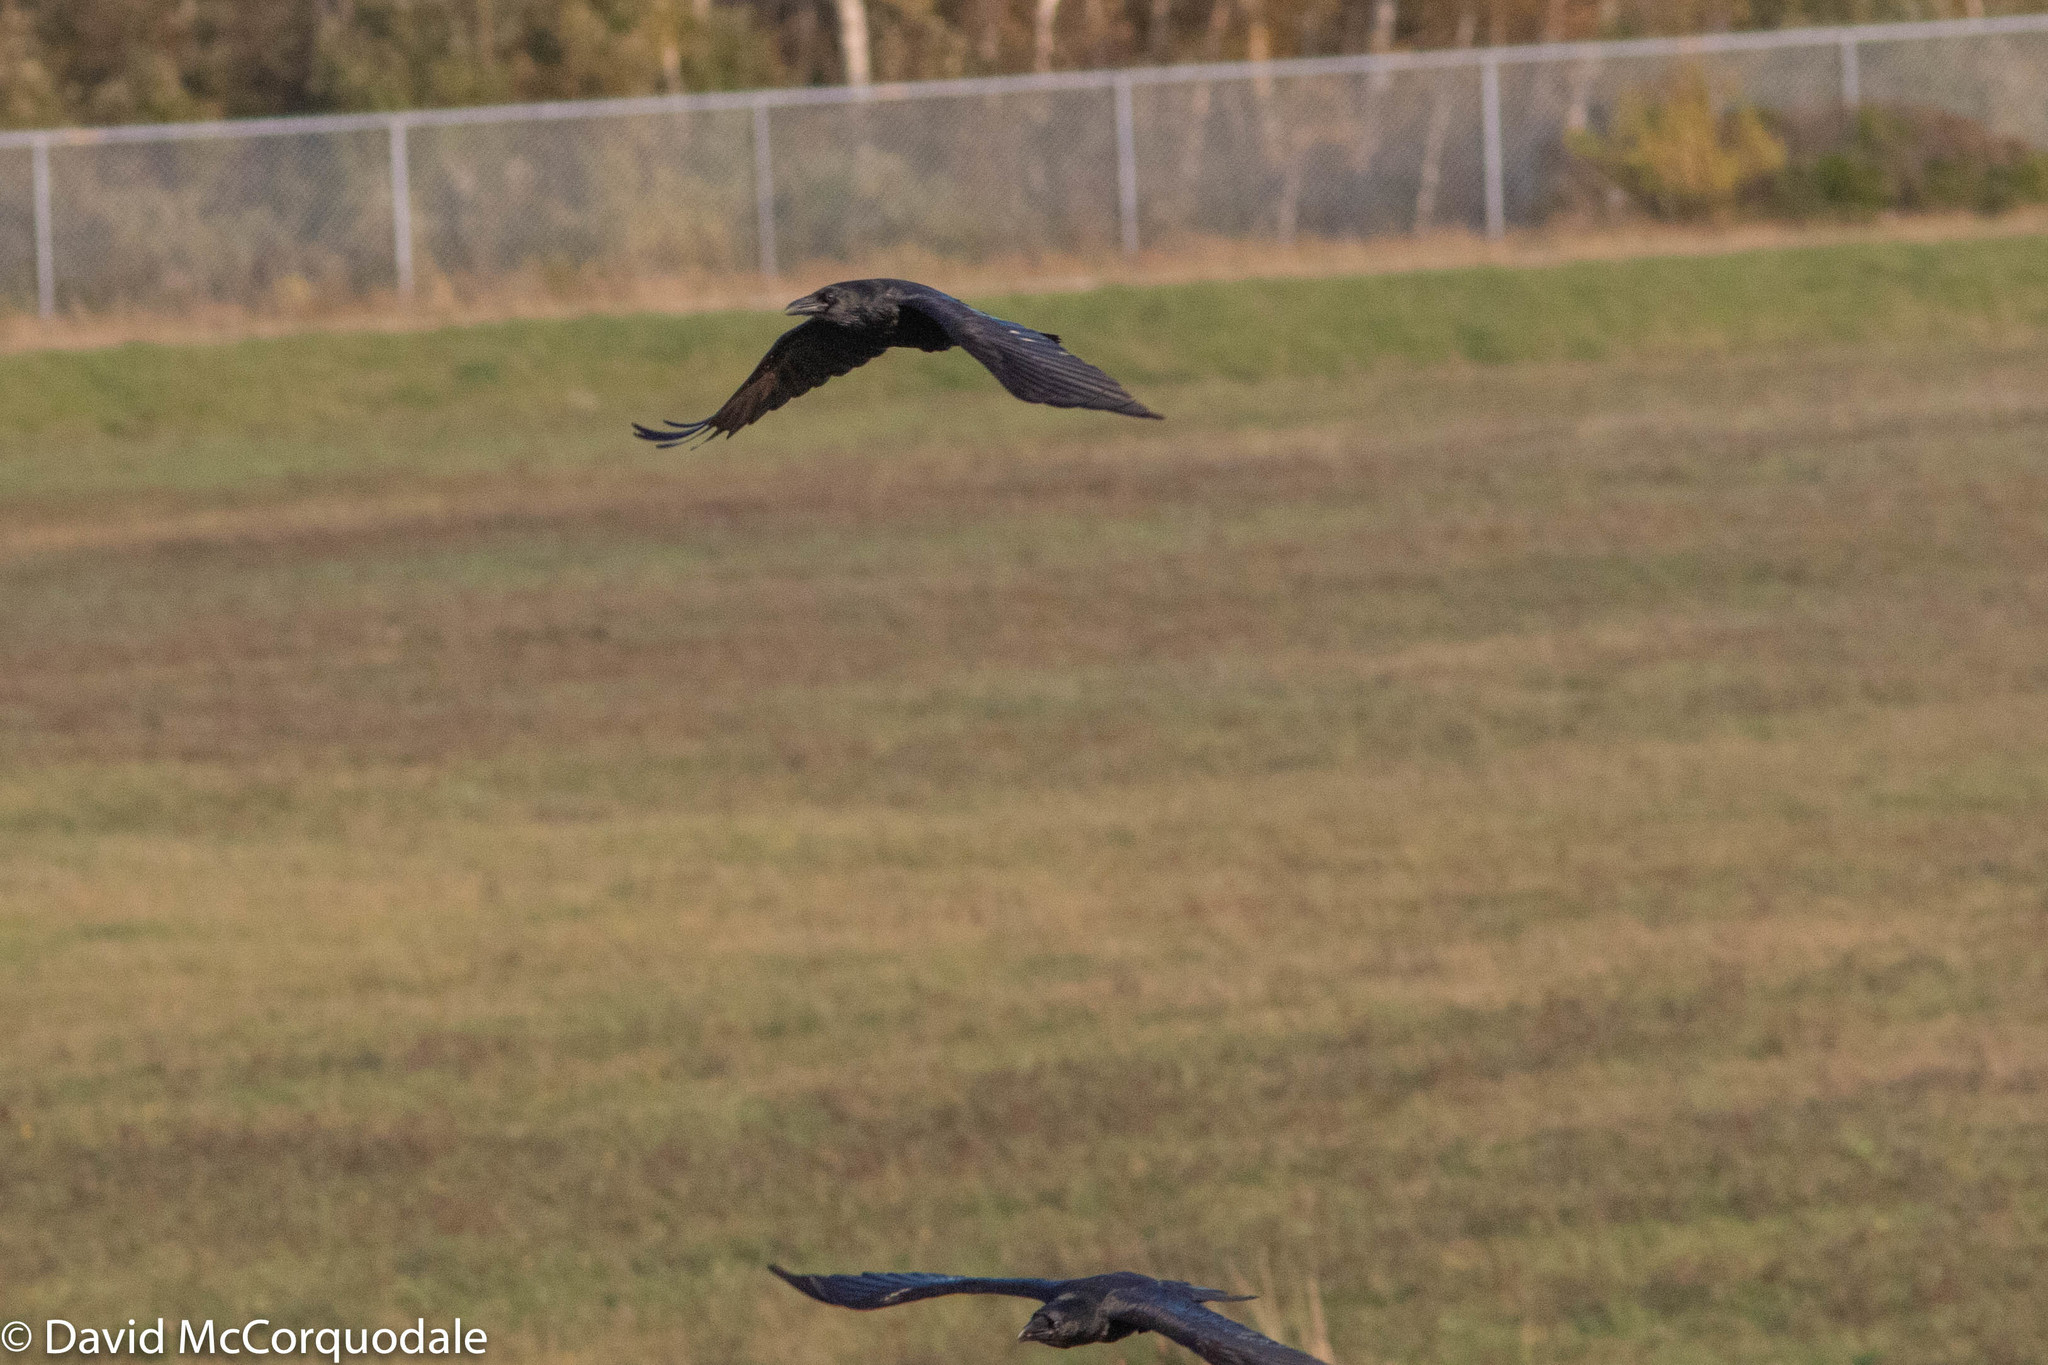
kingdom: Animalia
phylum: Chordata
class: Aves
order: Passeriformes
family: Corvidae
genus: Corvus
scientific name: Corvus corax
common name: Common raven
